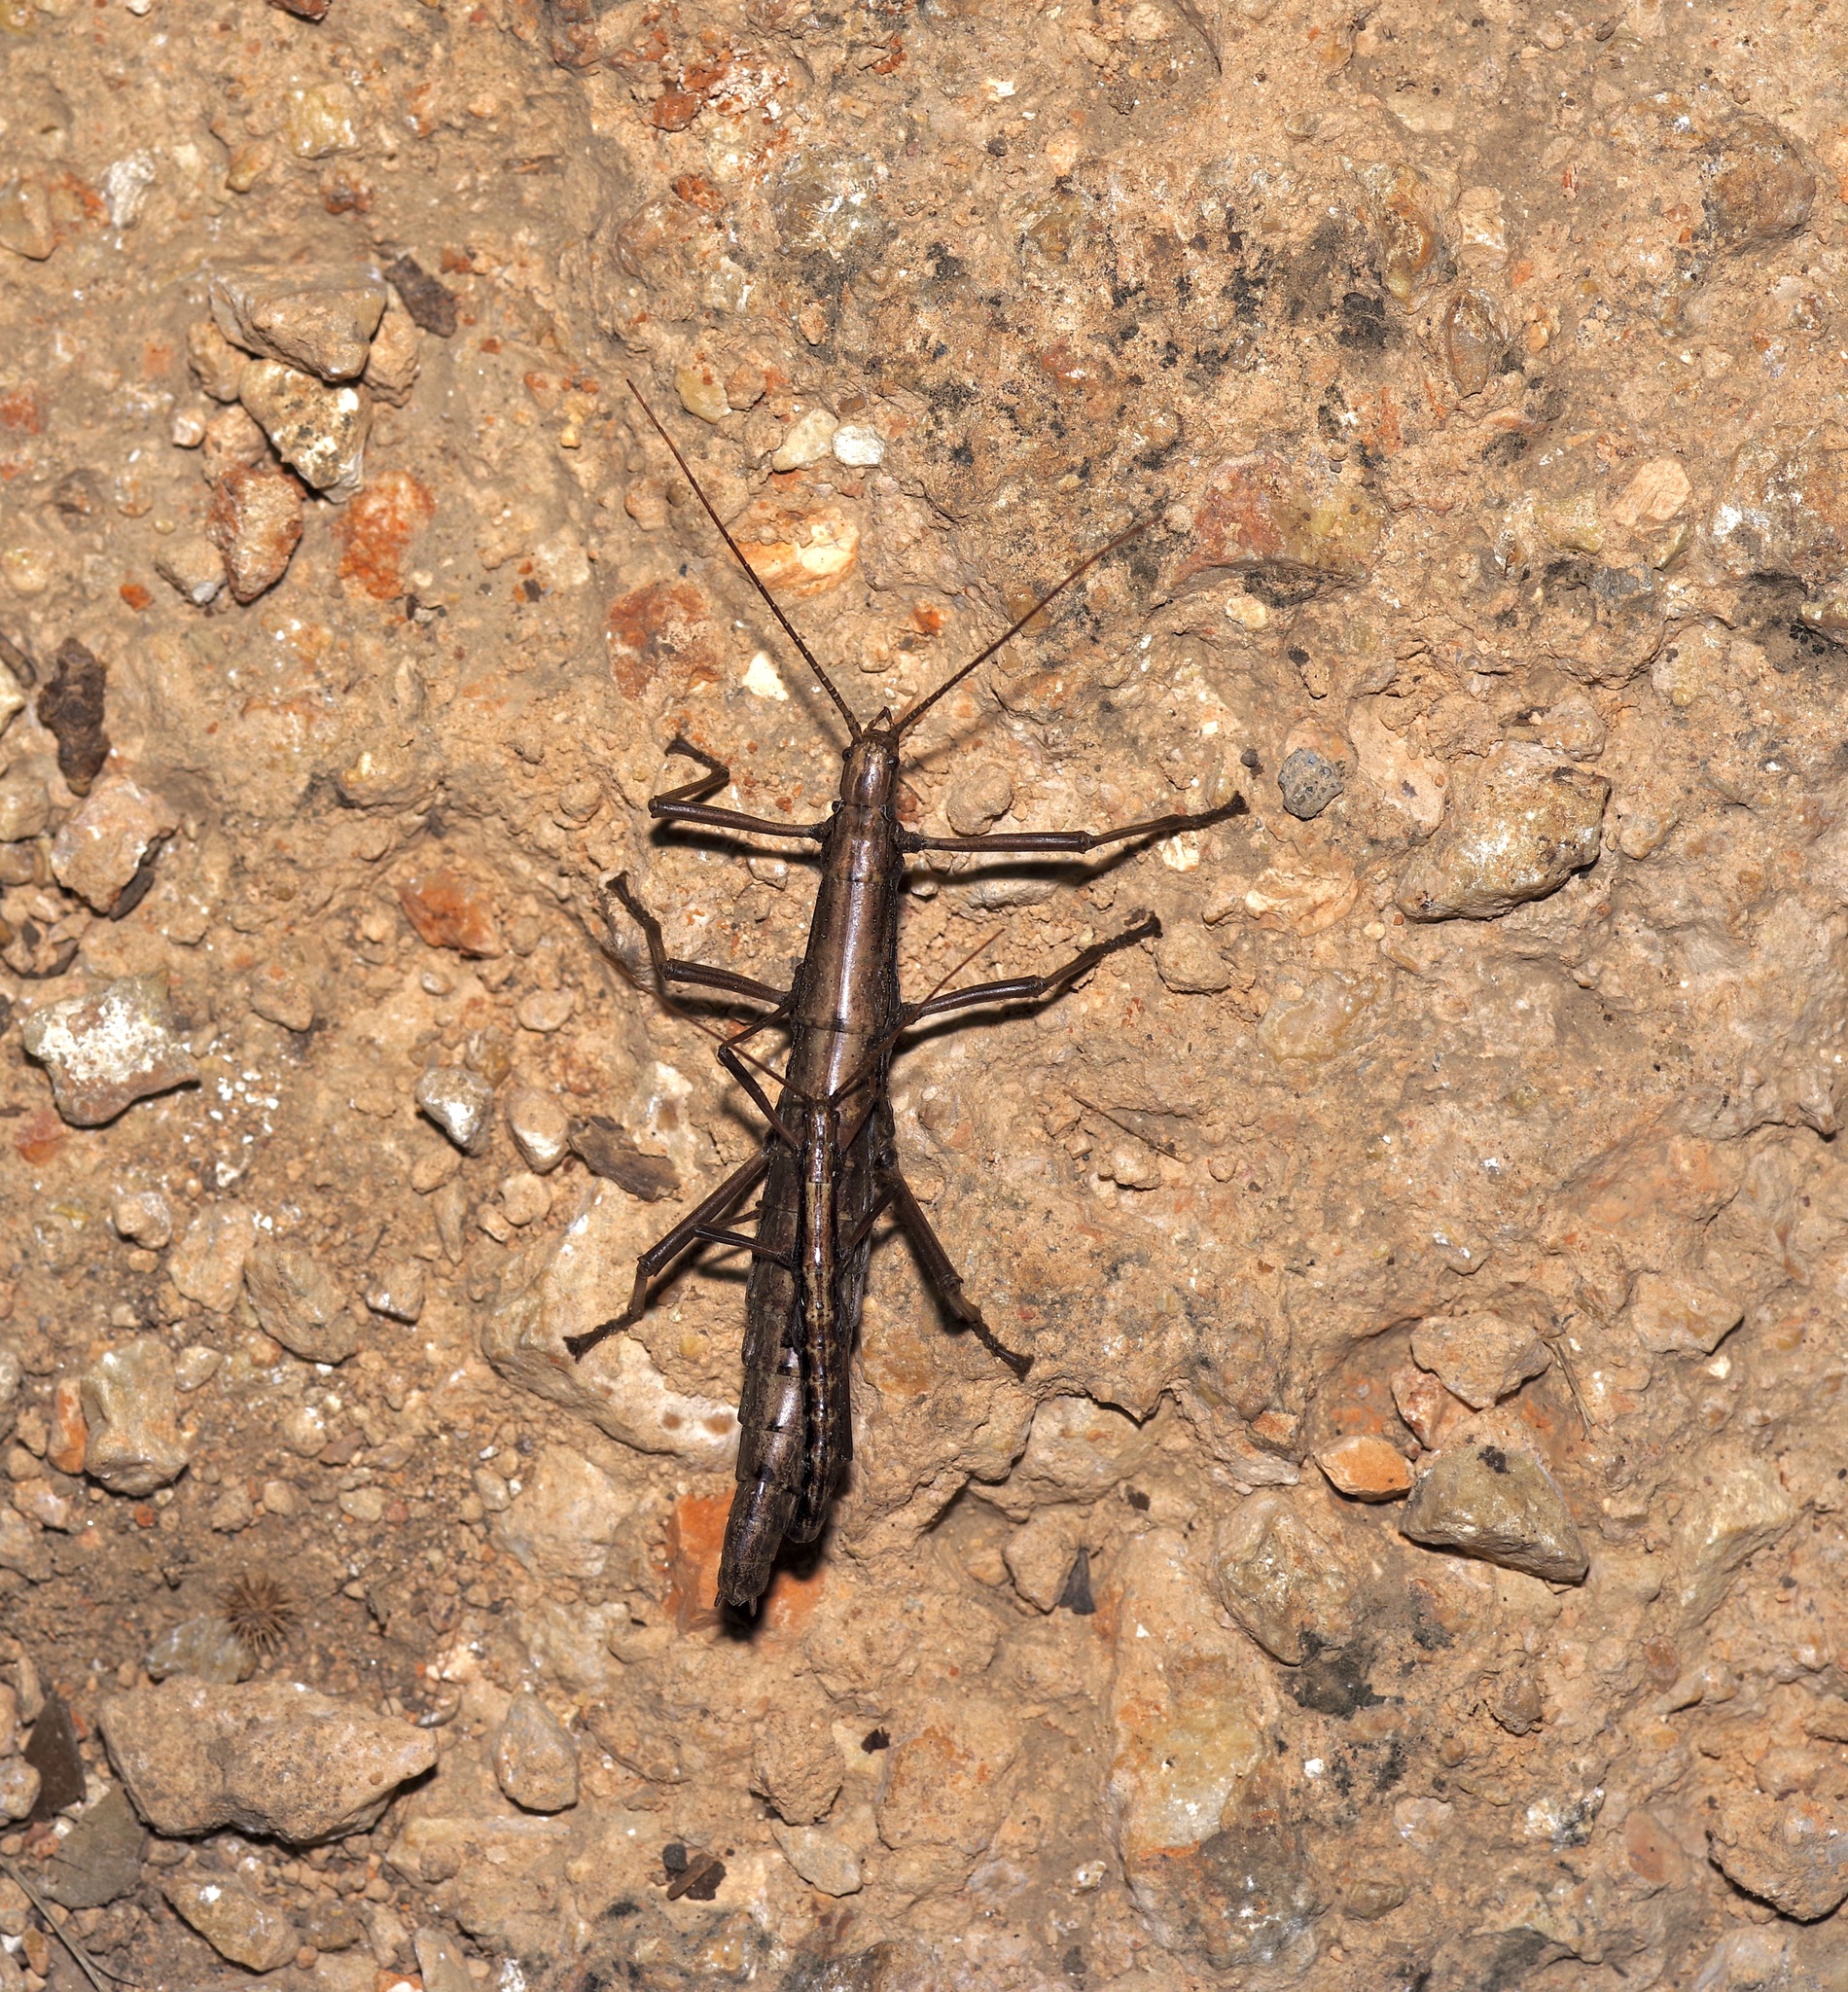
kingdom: Animalia
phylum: Arthropoda
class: Insecta
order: Phasmida
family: Pseudophasmatidae
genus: Anisomorpha
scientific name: Anisomorpha buprestoides
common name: Florida stick insect
